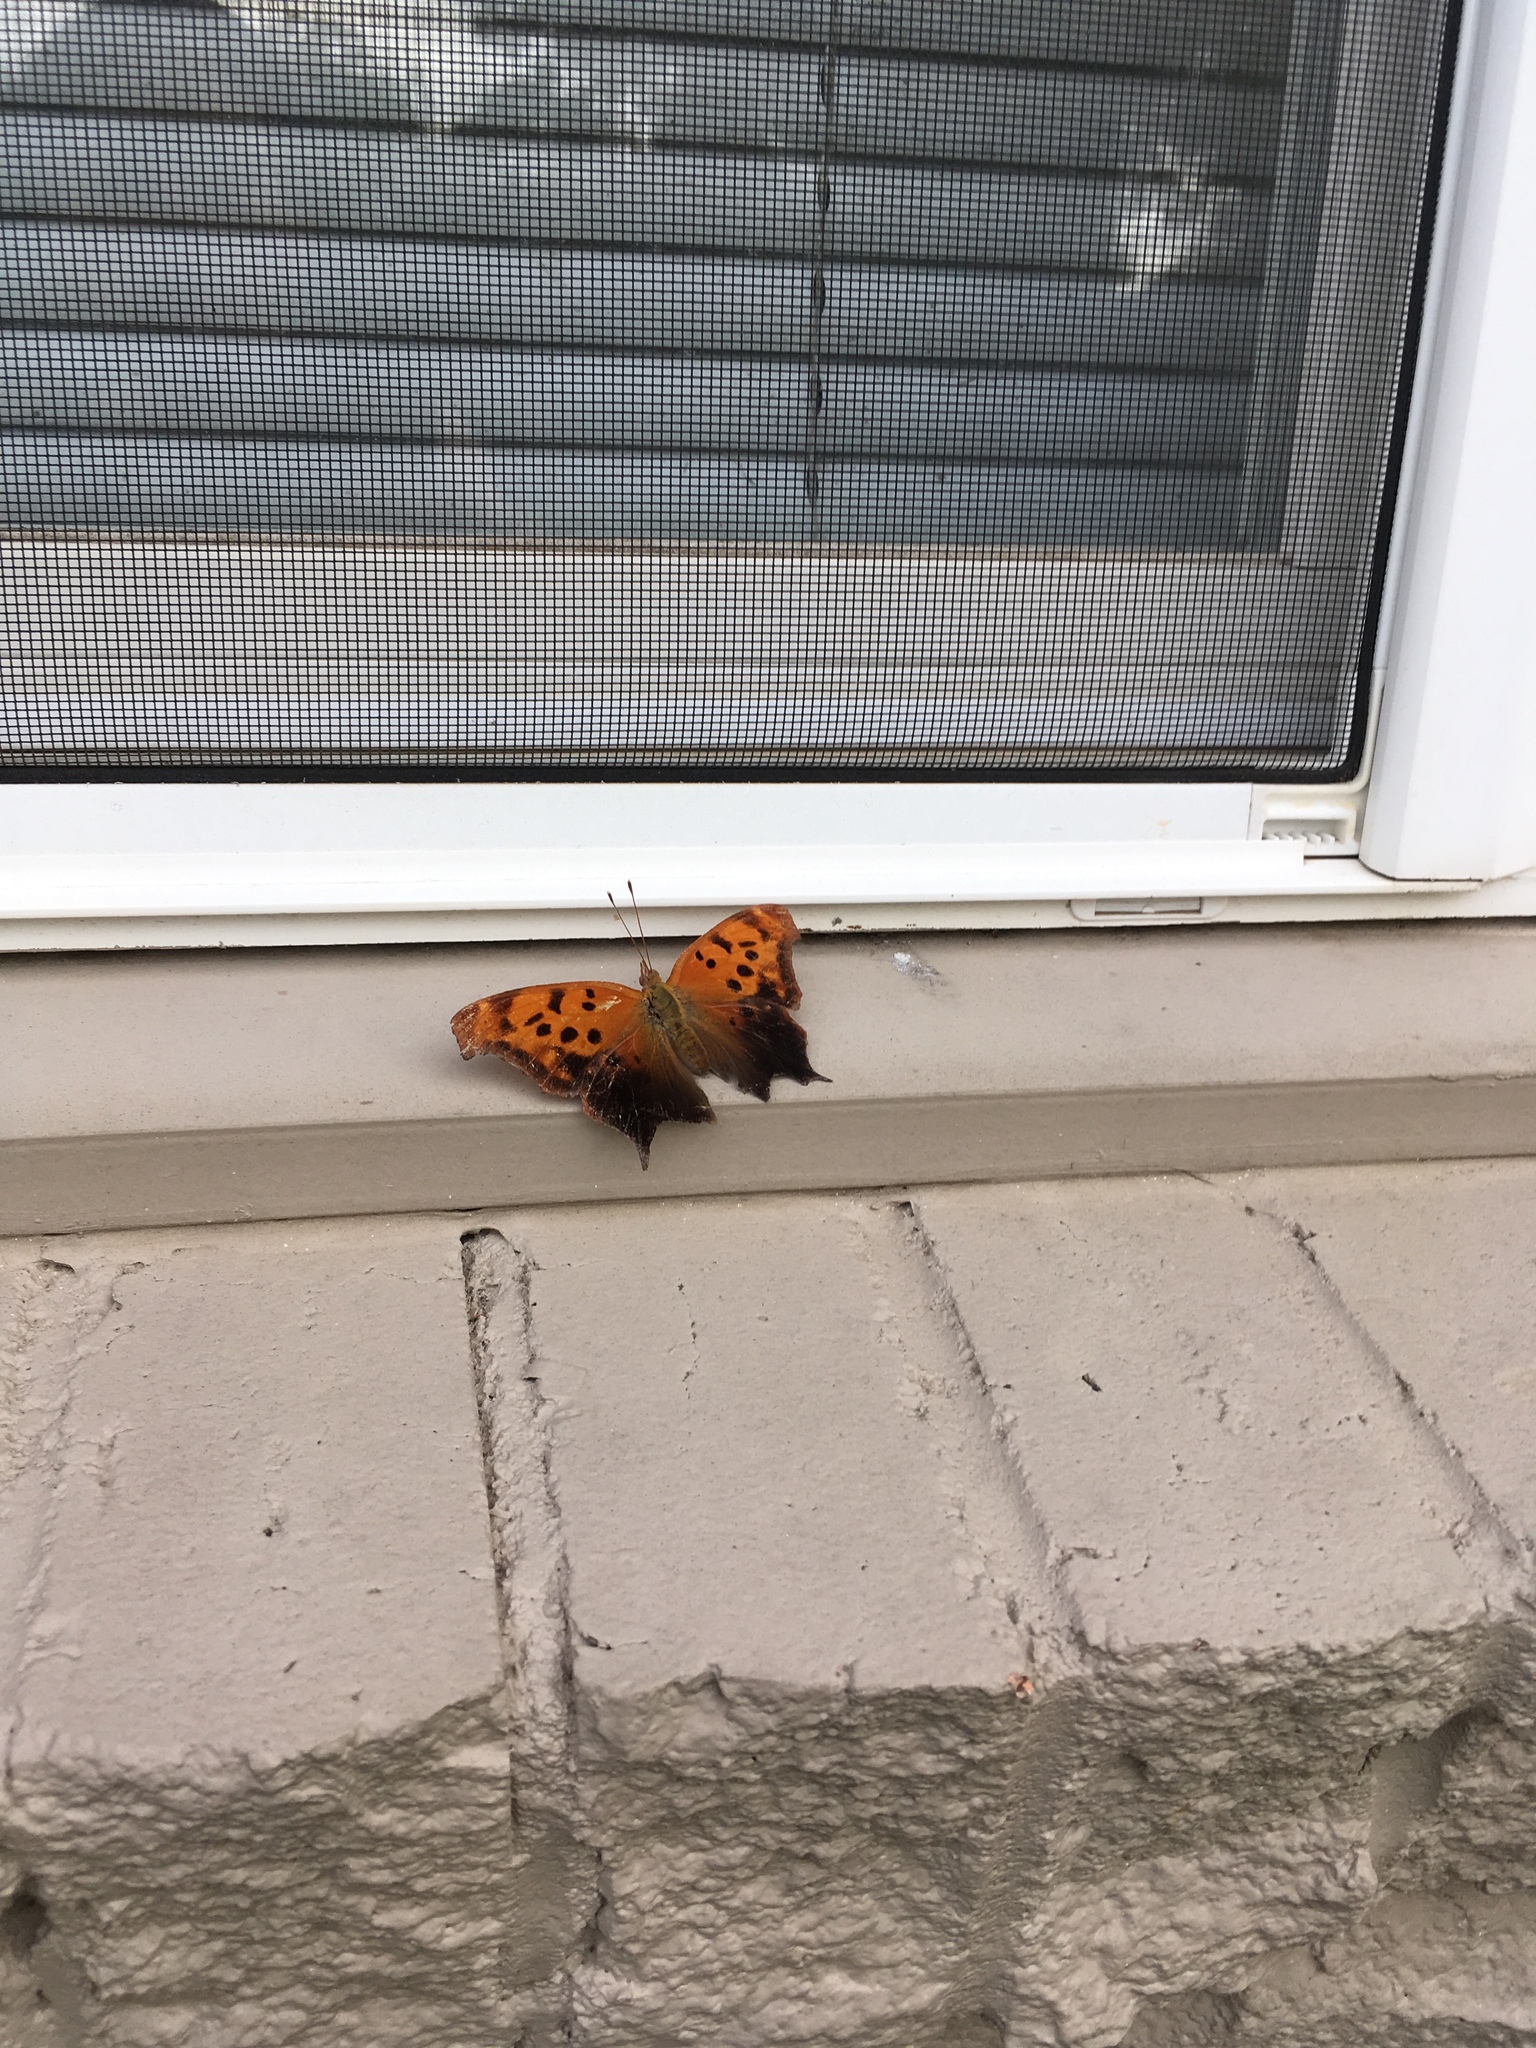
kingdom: Animalia
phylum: Arthropoda
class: Insecta
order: Lepidoptera
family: Nymphalidae
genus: Polygonia
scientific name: Polygonia interrogationis
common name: Question mark
